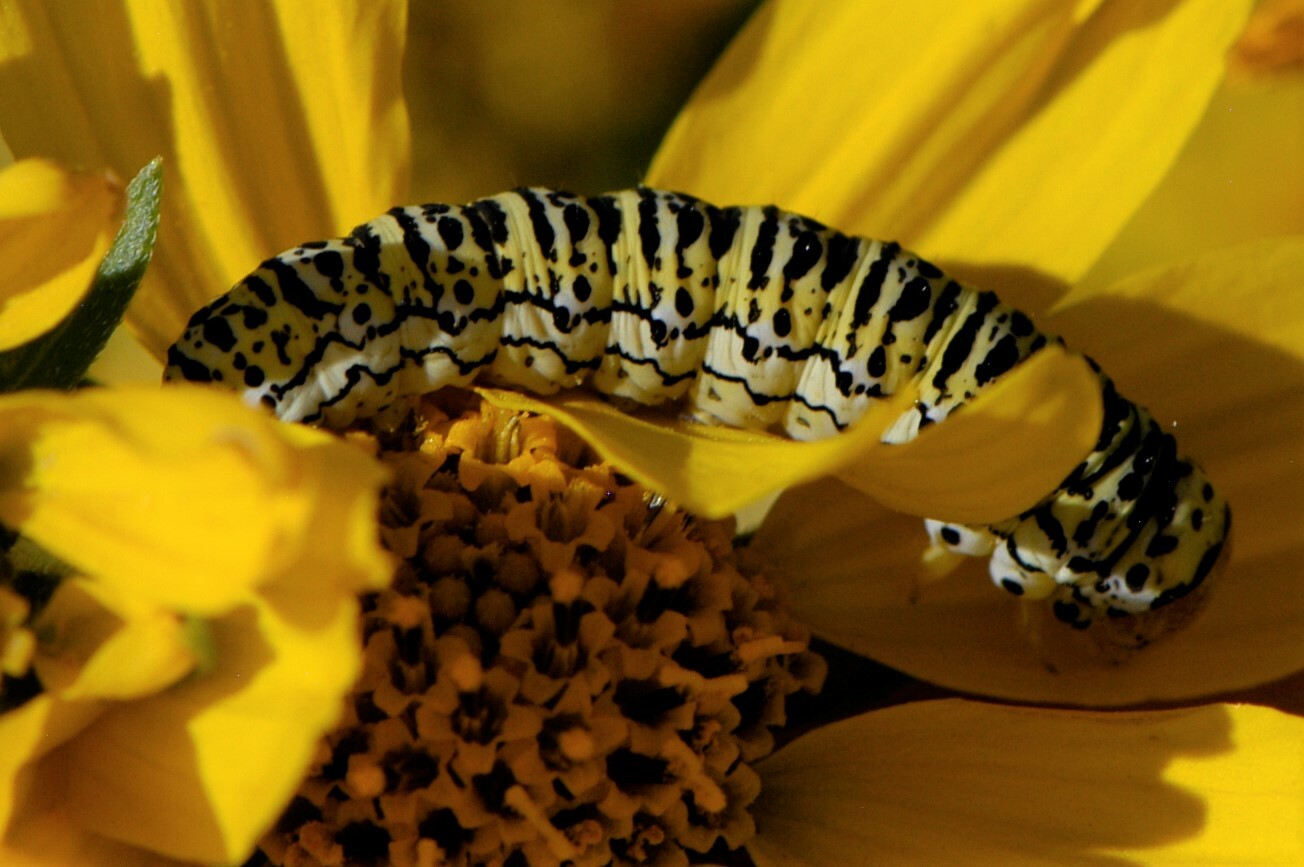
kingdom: Animalia
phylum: Arthropoda
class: Insecta
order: Lepidoptera
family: Noctuidae
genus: Basilodes
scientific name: Basilodes chrysopis
